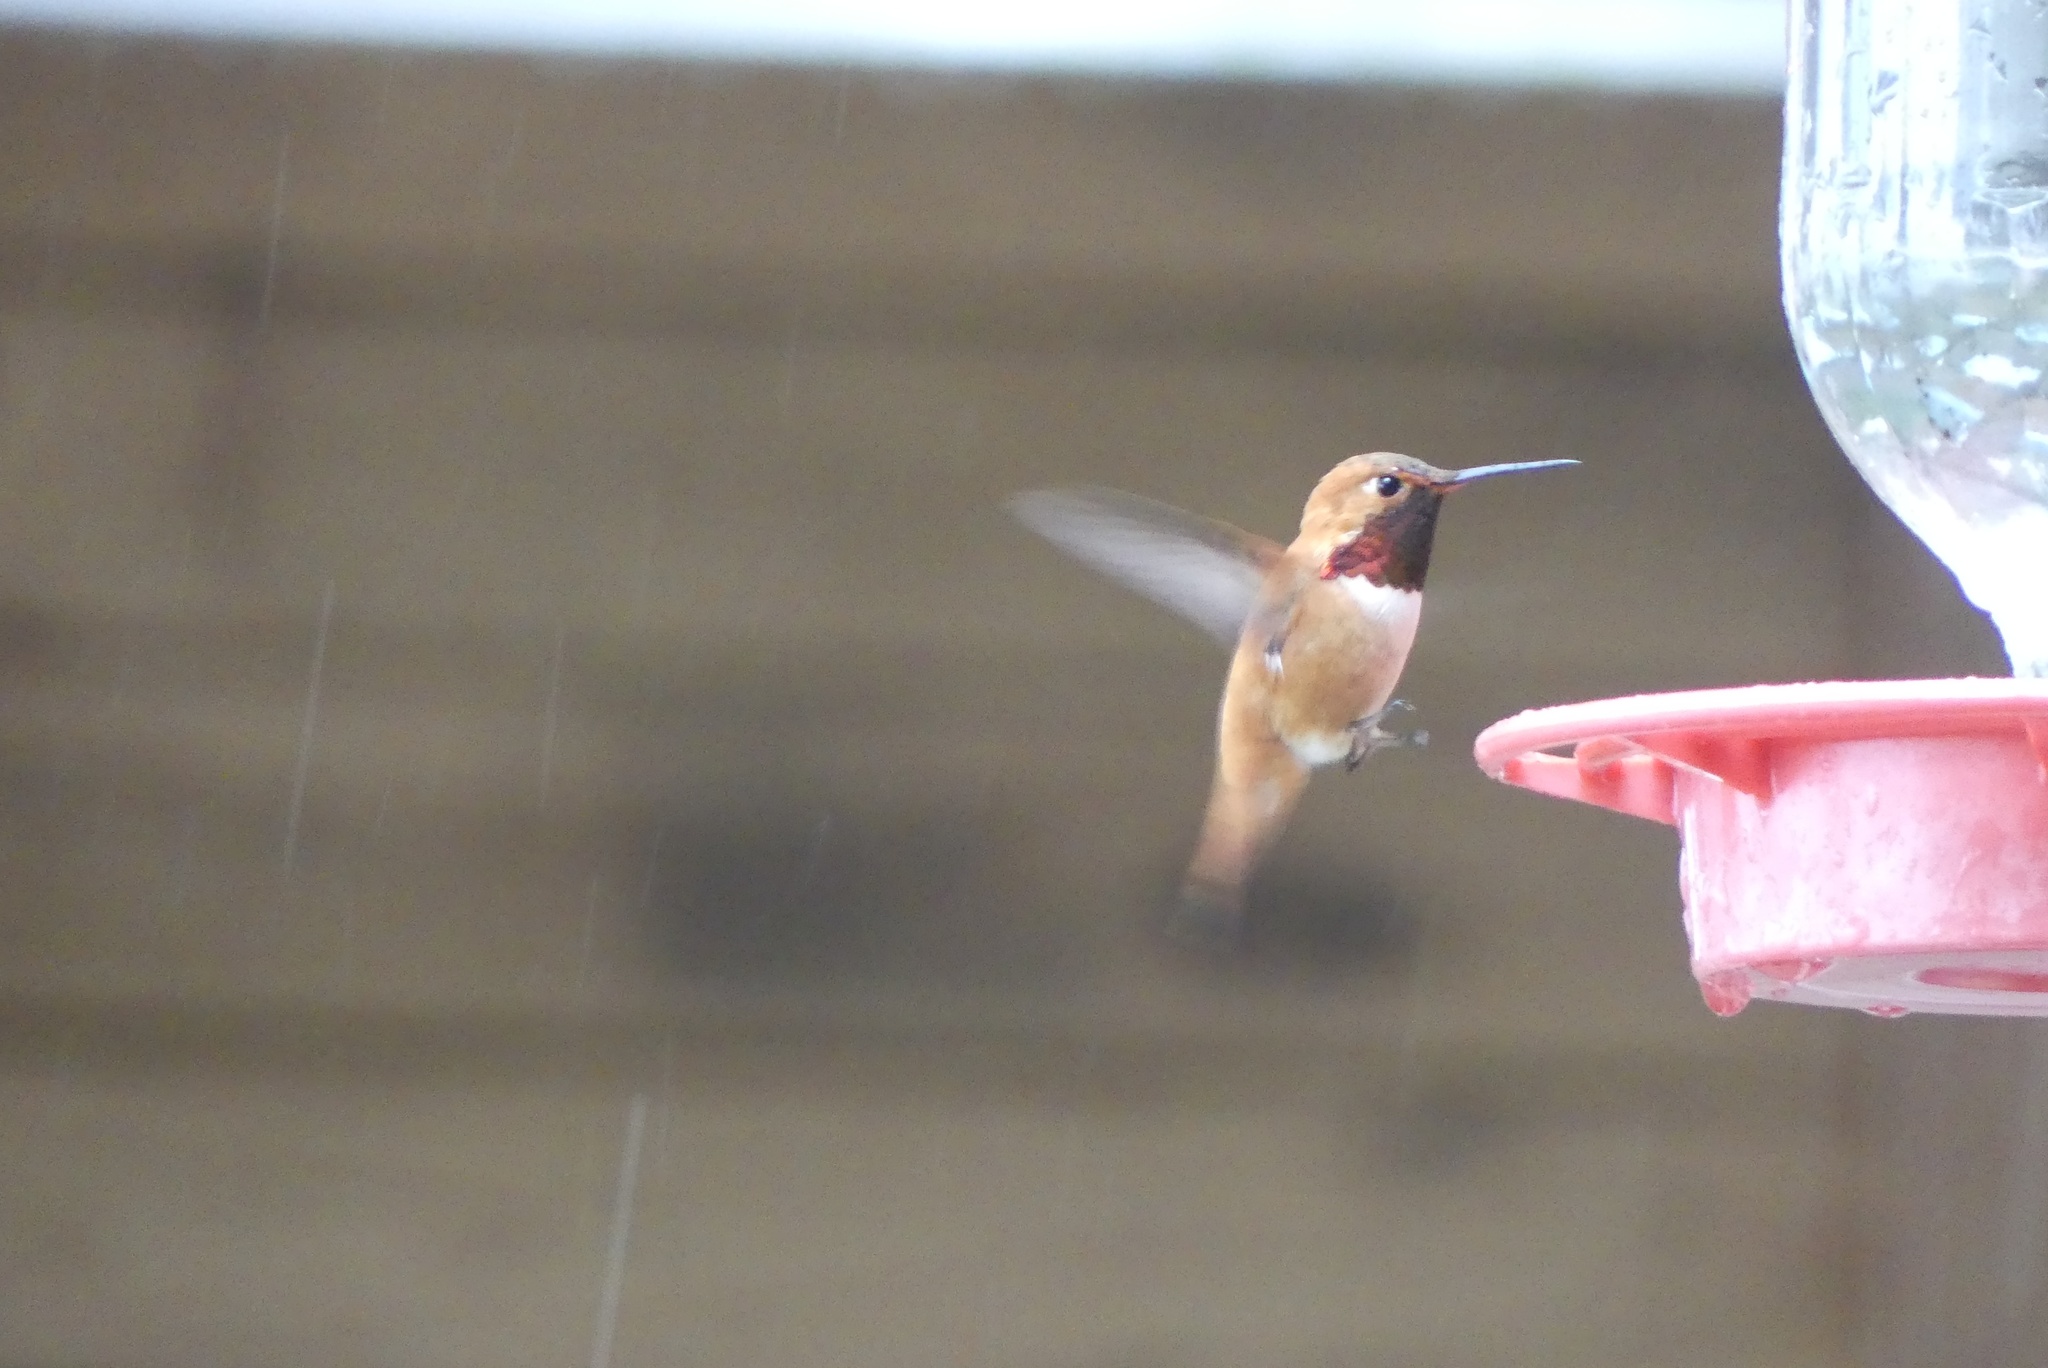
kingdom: Animalia
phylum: Chordata
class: Aves
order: Apodiformes
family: Trochilidae
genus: Selasphorus
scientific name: Selasphorus rufus
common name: Rufous hummingbird
